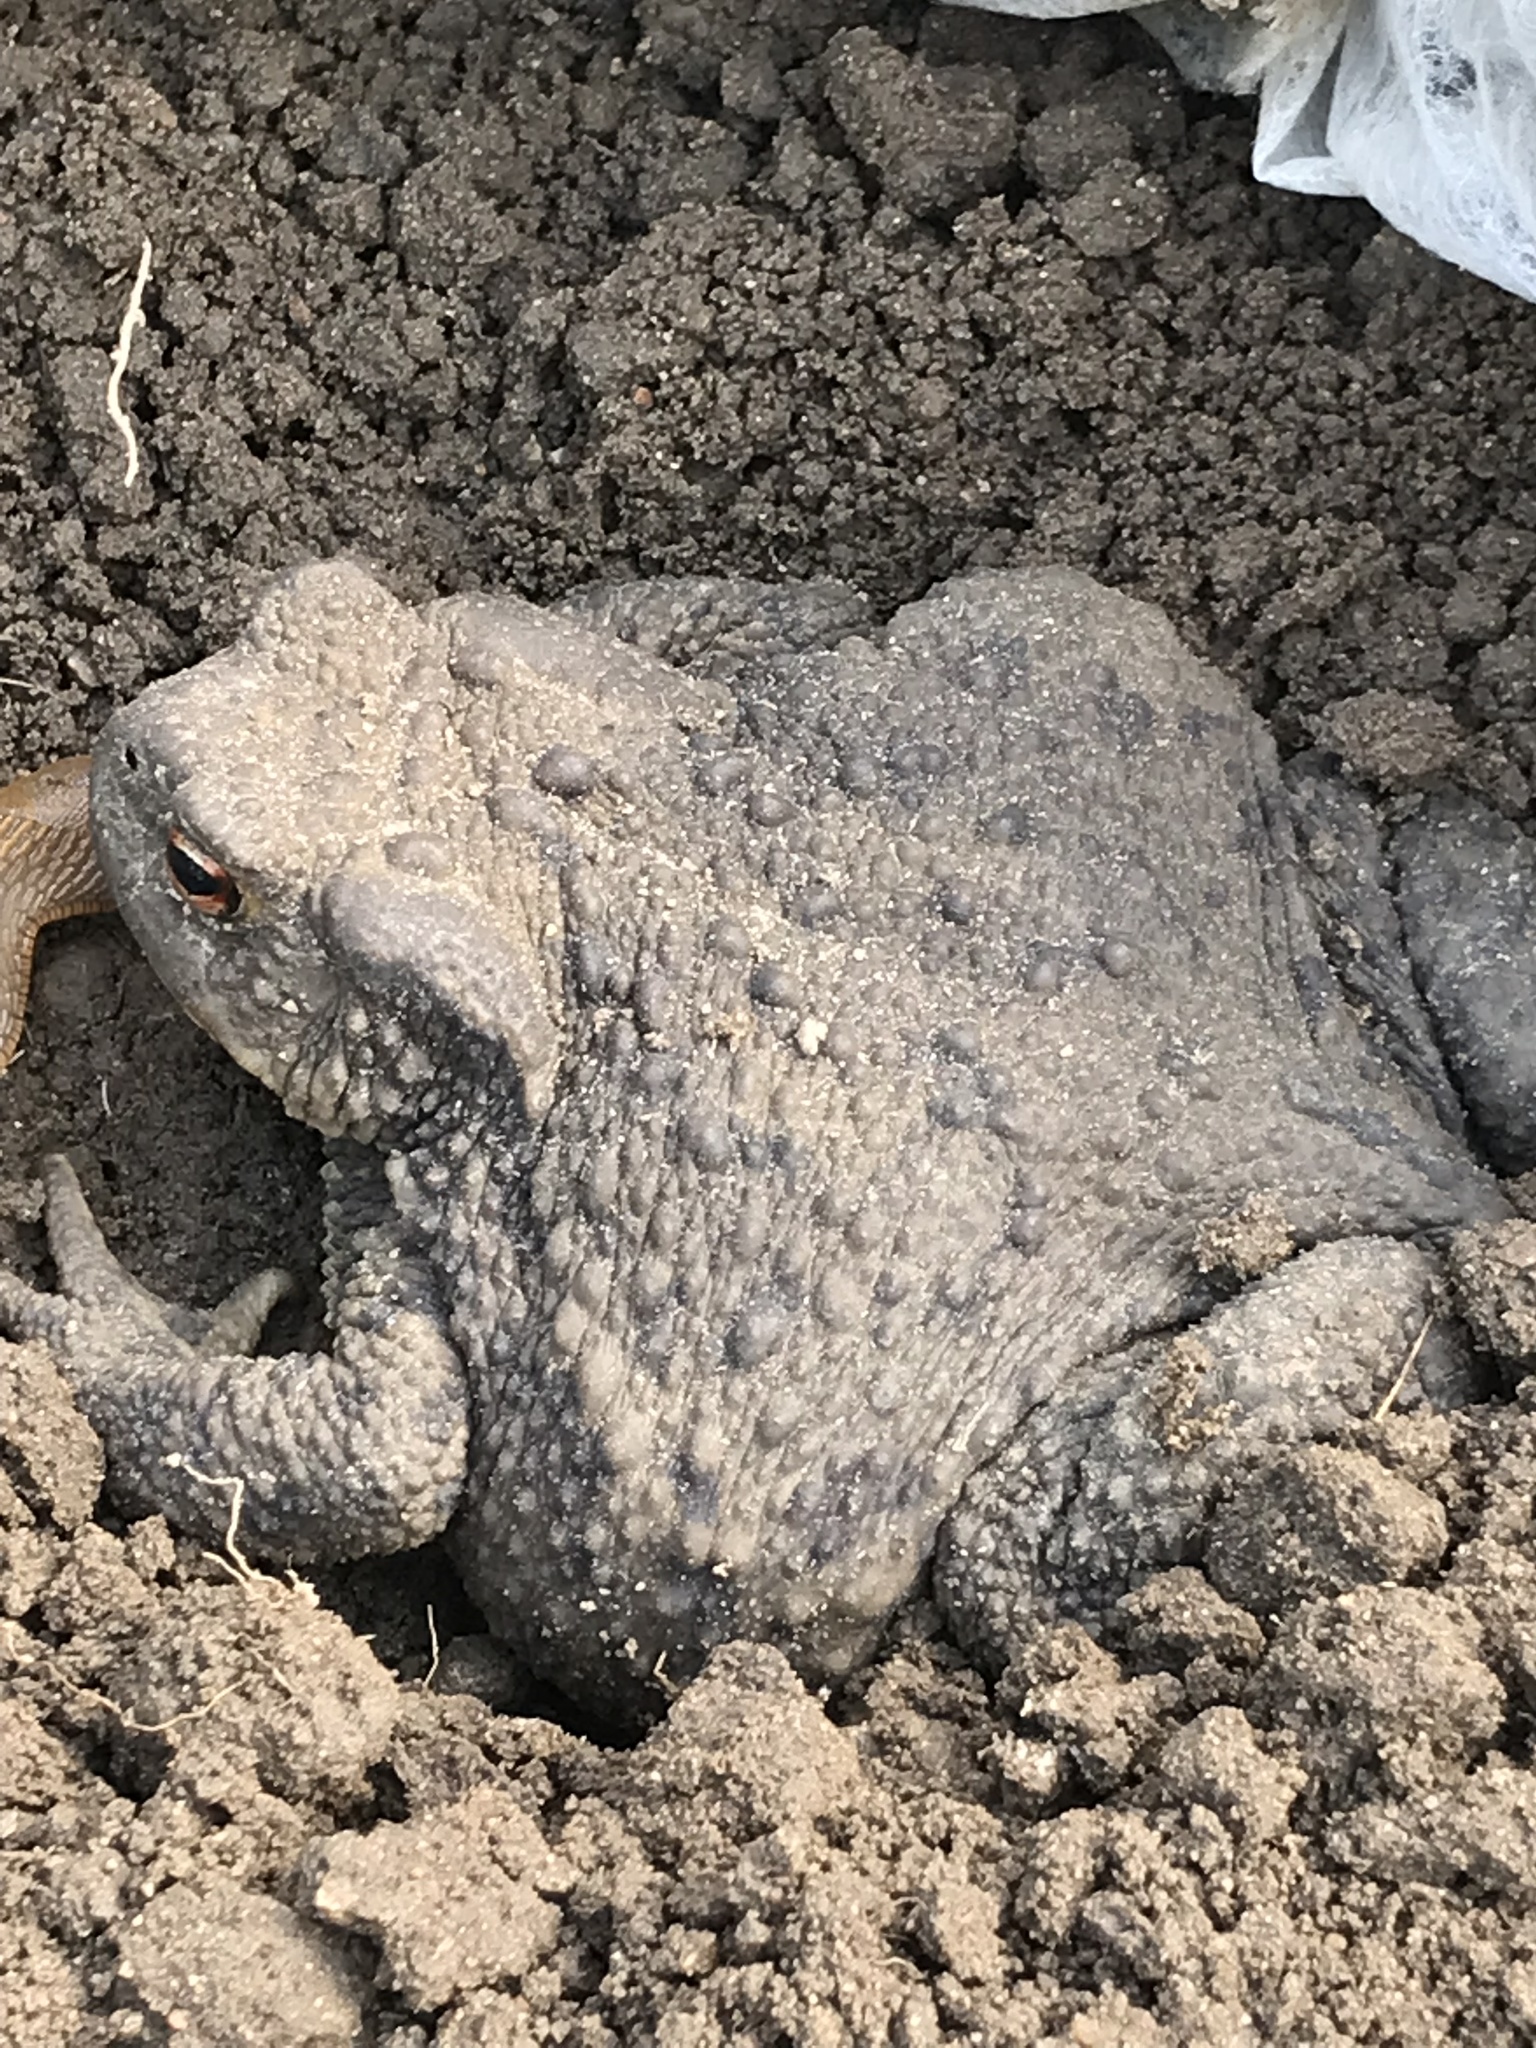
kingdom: Animalia
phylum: Chordata
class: Amphibia
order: Anura
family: Bufonidae
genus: Bufo
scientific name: Bufo bufo
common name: Common toad
